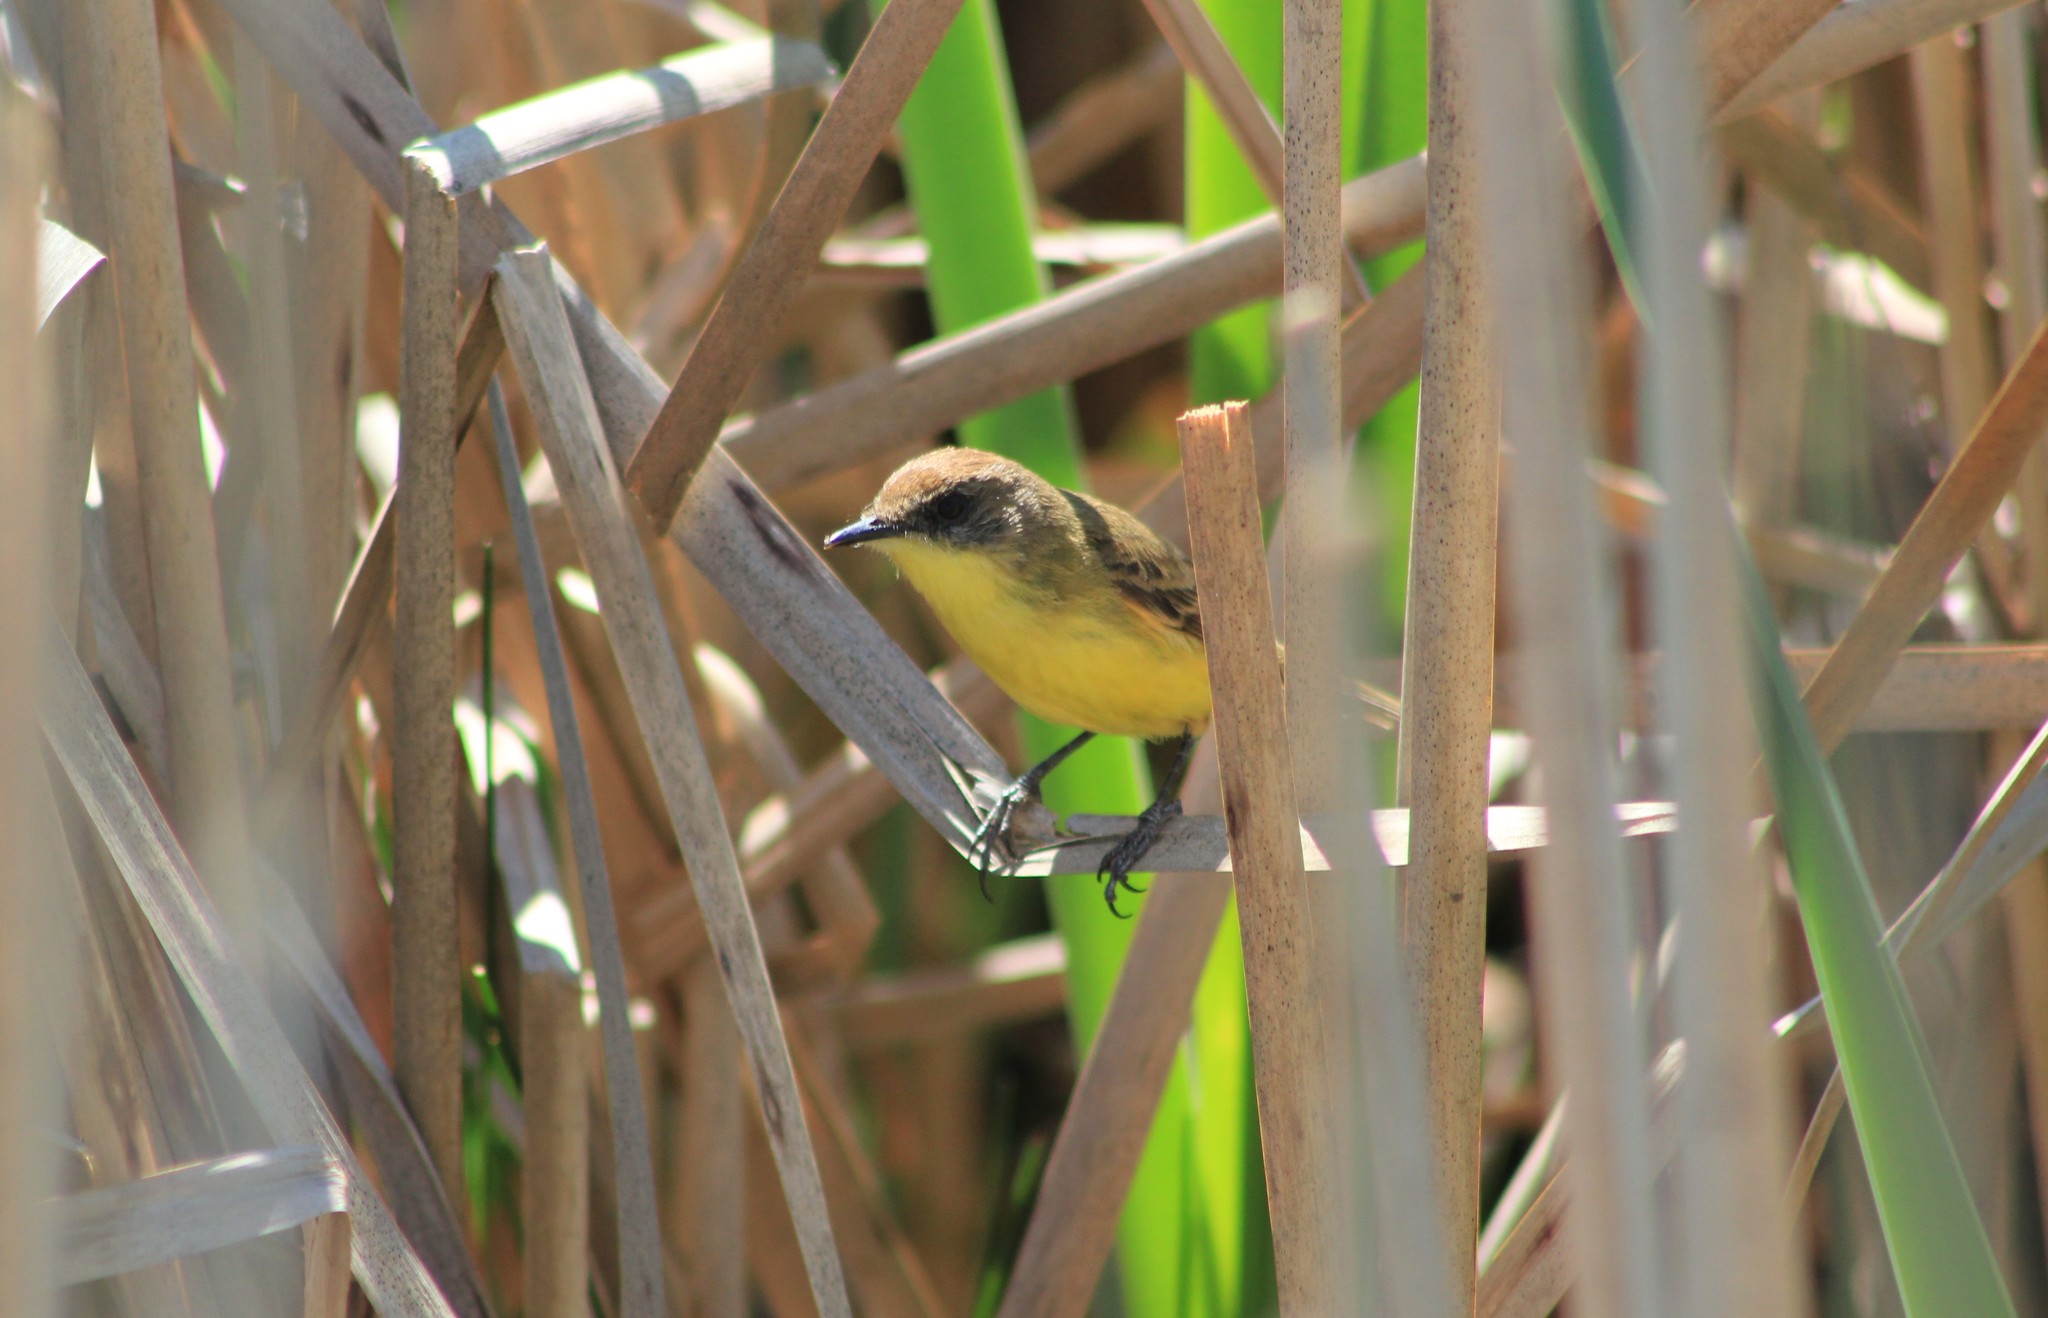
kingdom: Animalia
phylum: Chordata
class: Aves
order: Passeriformes
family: Tyrannidae
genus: Pseudocolopteryx
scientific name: Pseudocolopteryx flaviventris
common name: Warbling doradito
